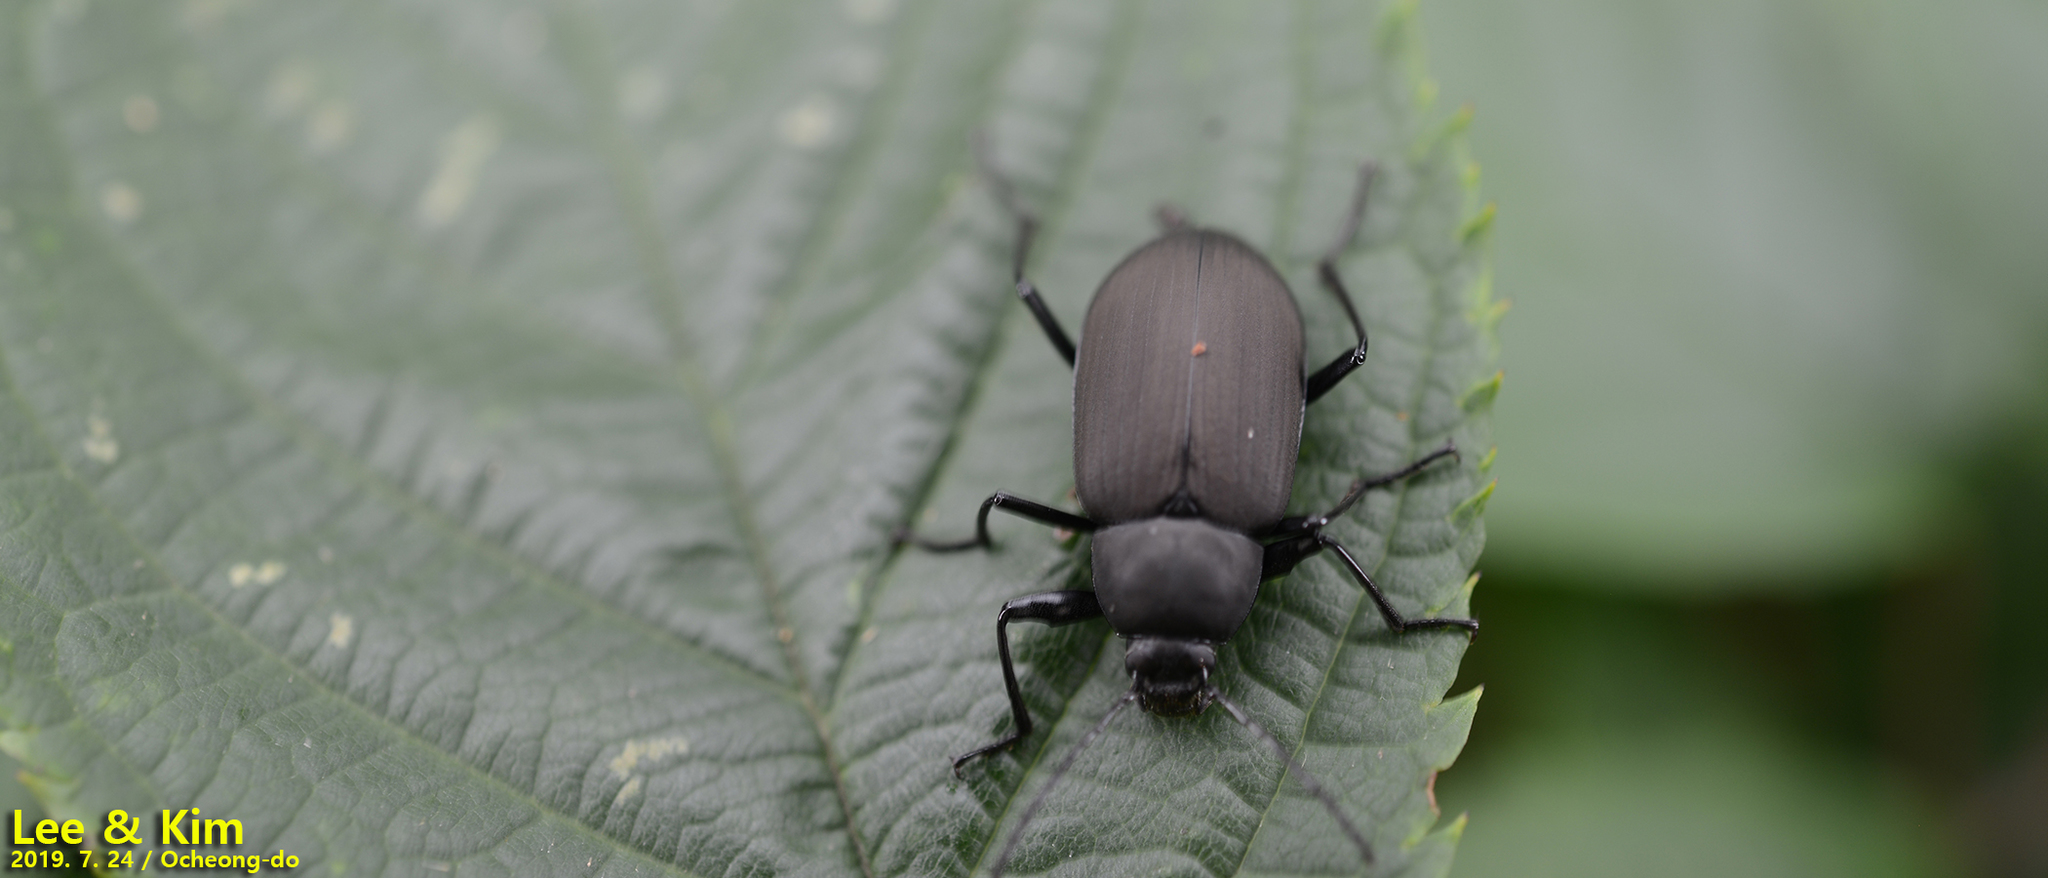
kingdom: Animalia
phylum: Arthropoda
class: Insecta
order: Coleoptera
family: Tenebrionidae
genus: Plesiophthalmus
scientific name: Plesiophthalmus
